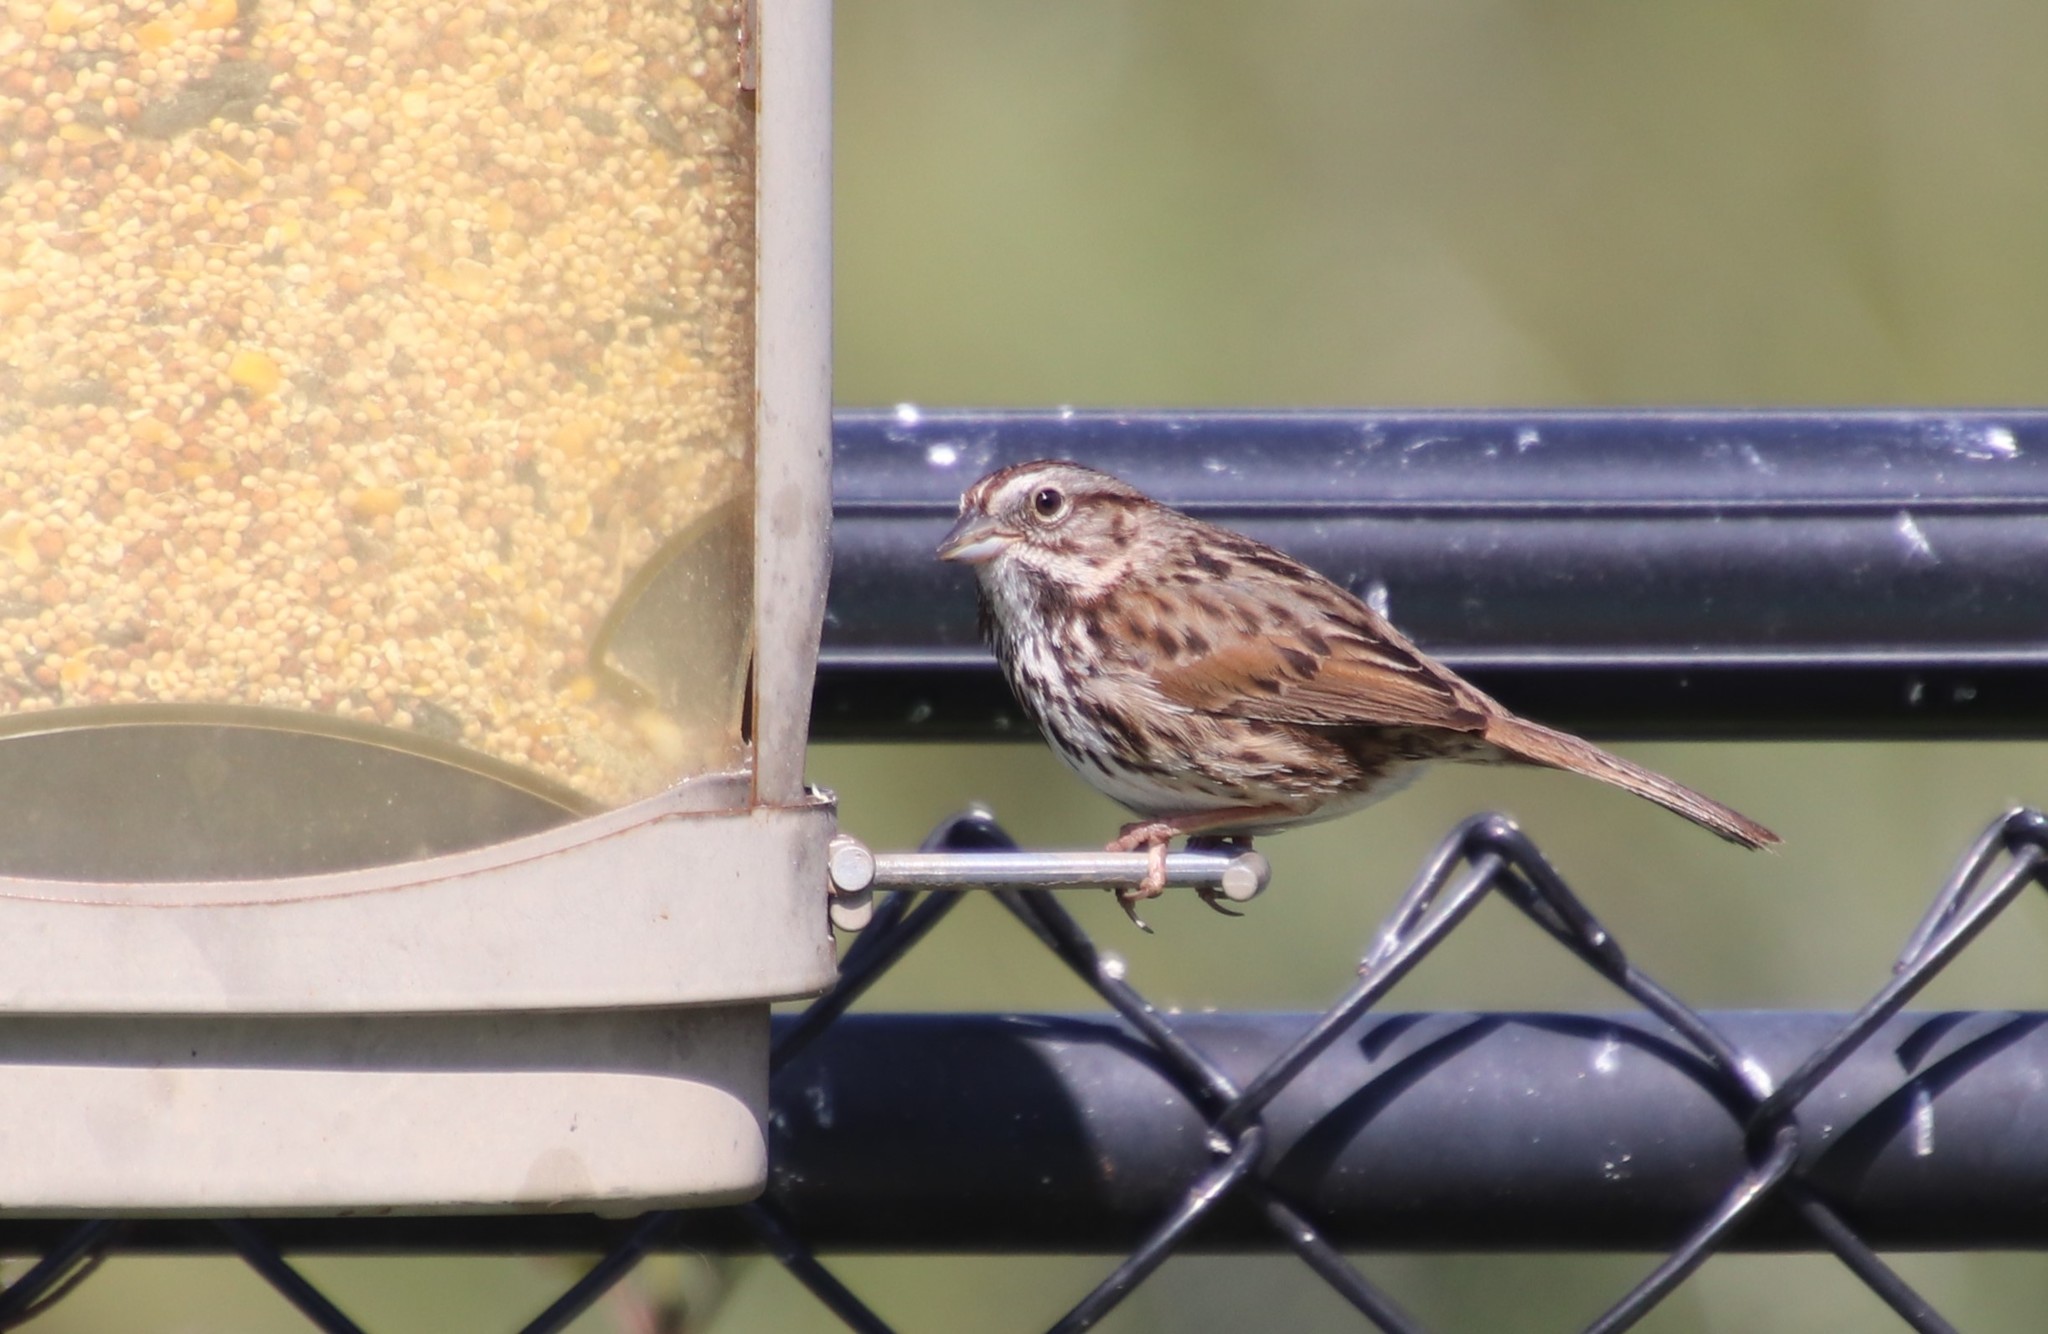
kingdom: Animalia
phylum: Chordata
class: Aves
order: Passeriformes
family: Passerellidae
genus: Melospiza
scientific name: Melospiza melodia
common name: Song sparrow
